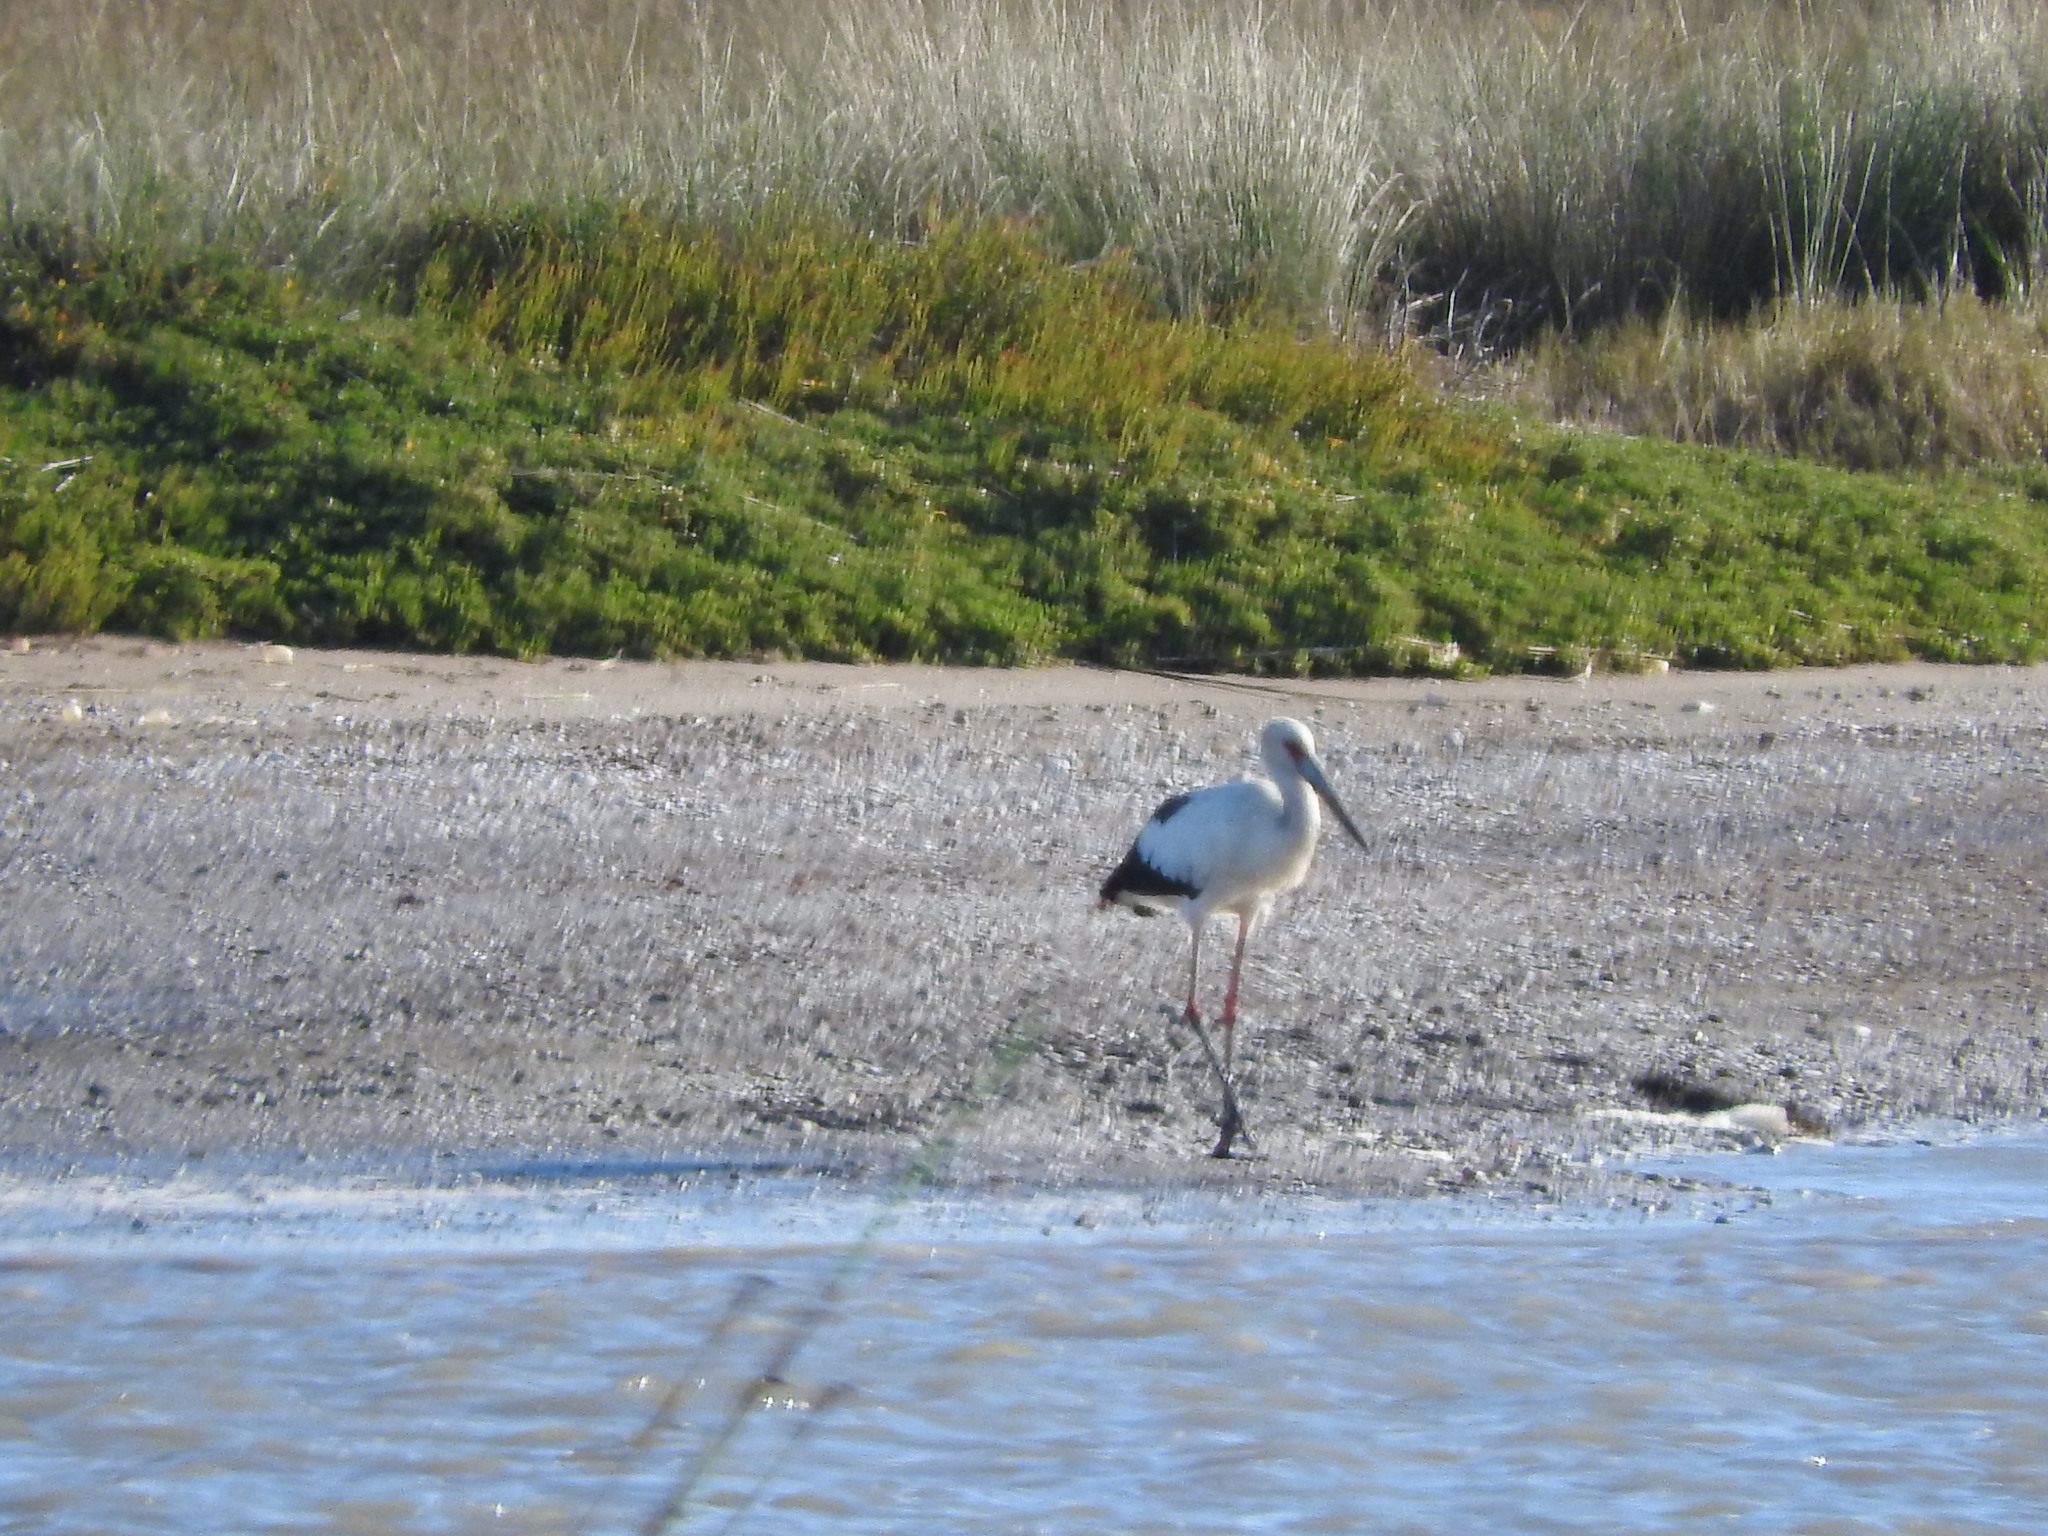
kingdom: Animalia
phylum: Chordata
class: Aves
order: Ciconiiformes
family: Ciconiidae
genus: Ciconia
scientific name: Ciconia maguari
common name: Maguari stork
